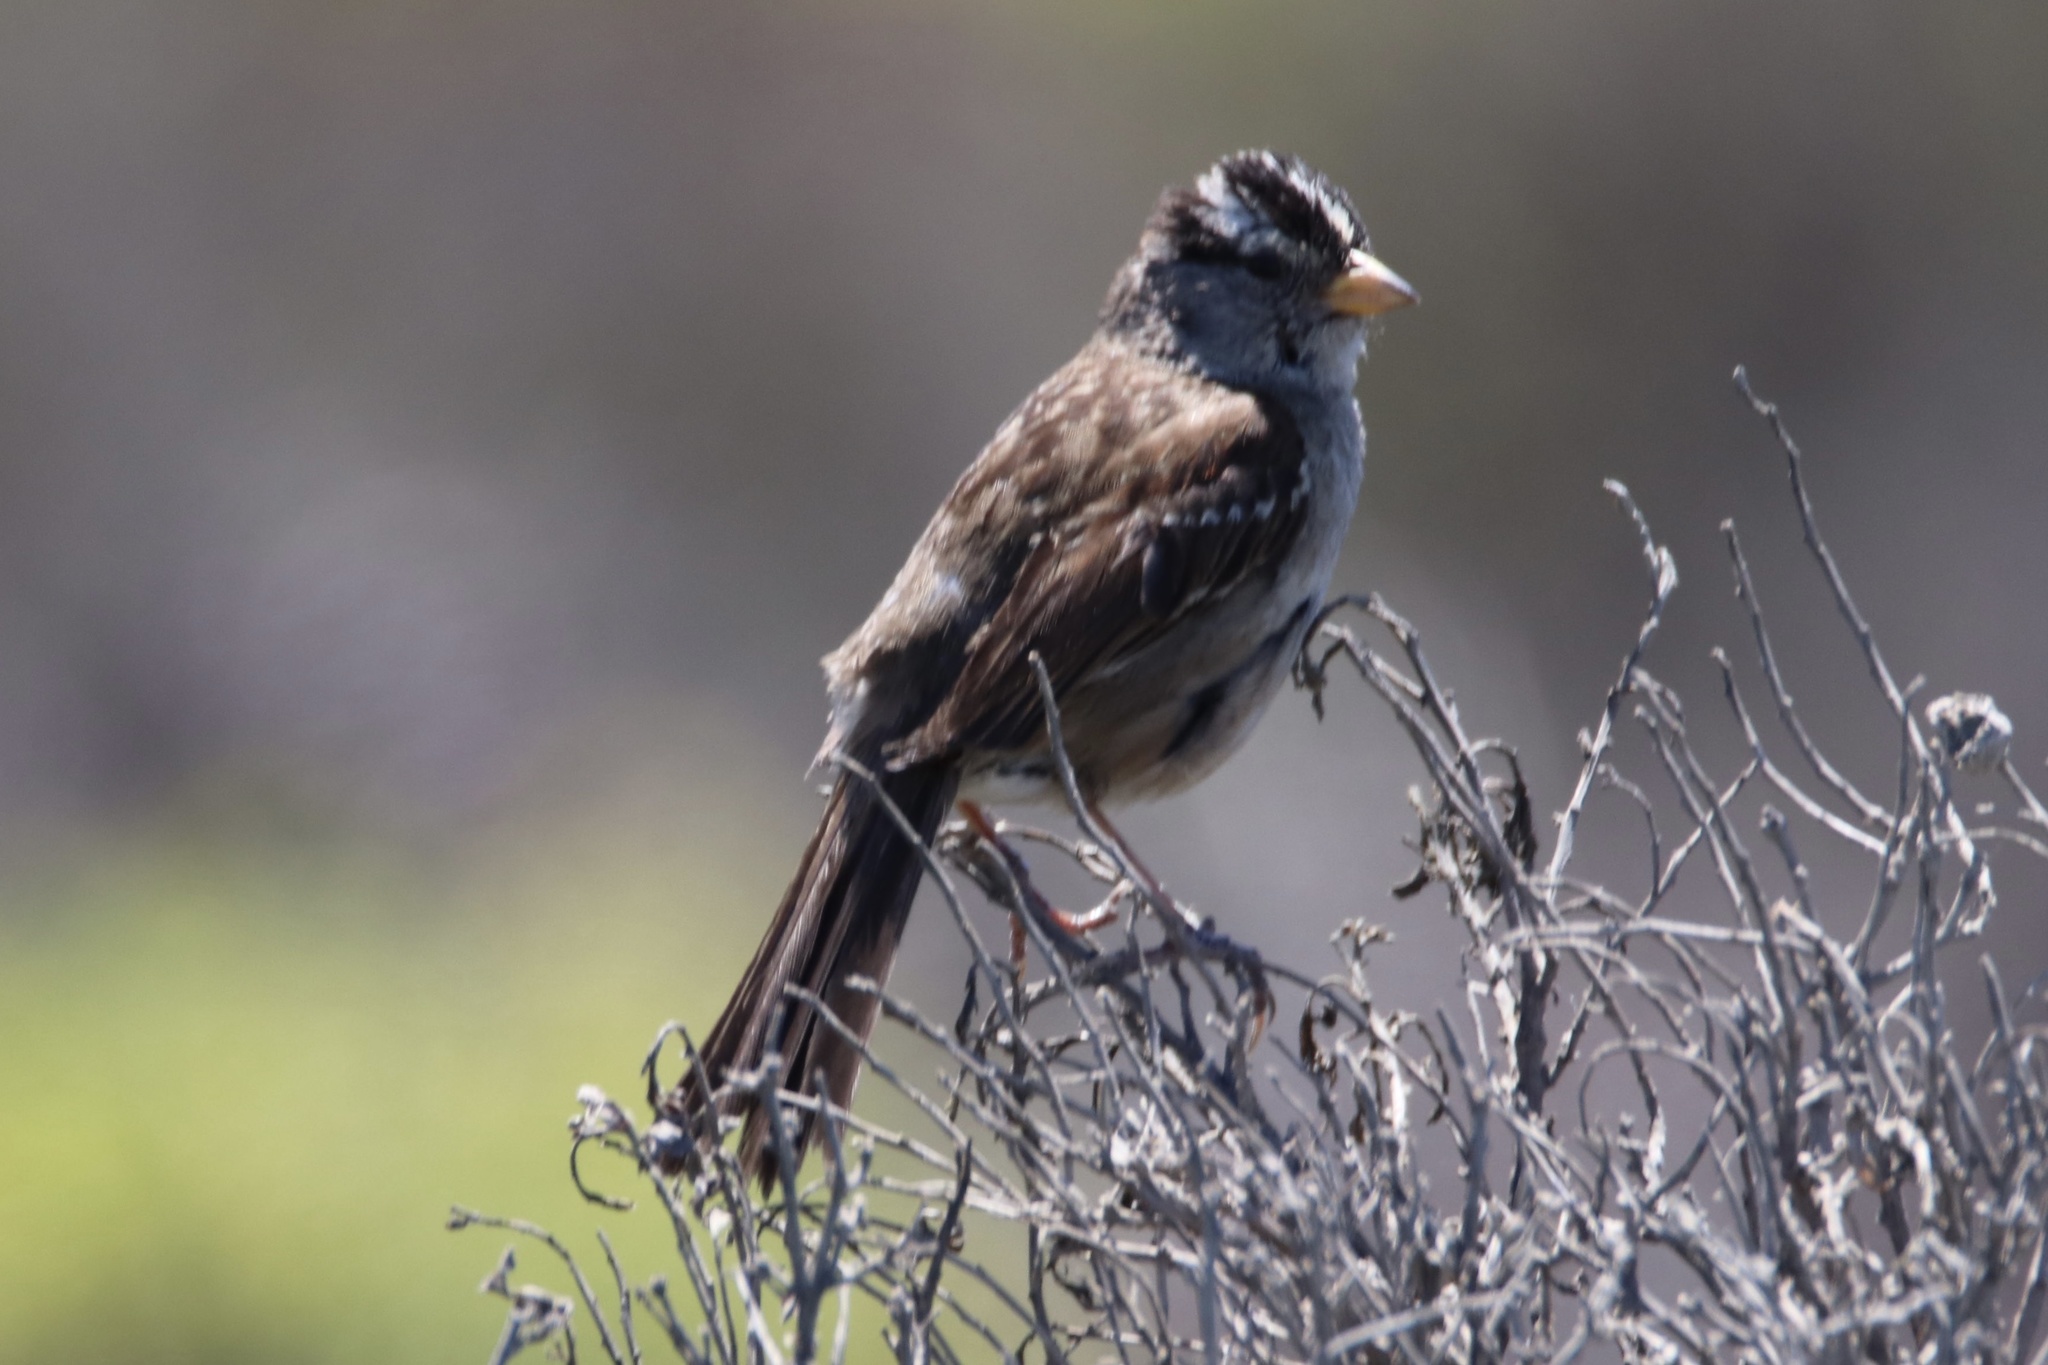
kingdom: Animalia
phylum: Chordata
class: Aves
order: Passeriformes
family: Passerellidae
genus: Zonotrichia
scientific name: Zonotrichia leucophrys
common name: White-crowned sparrow
